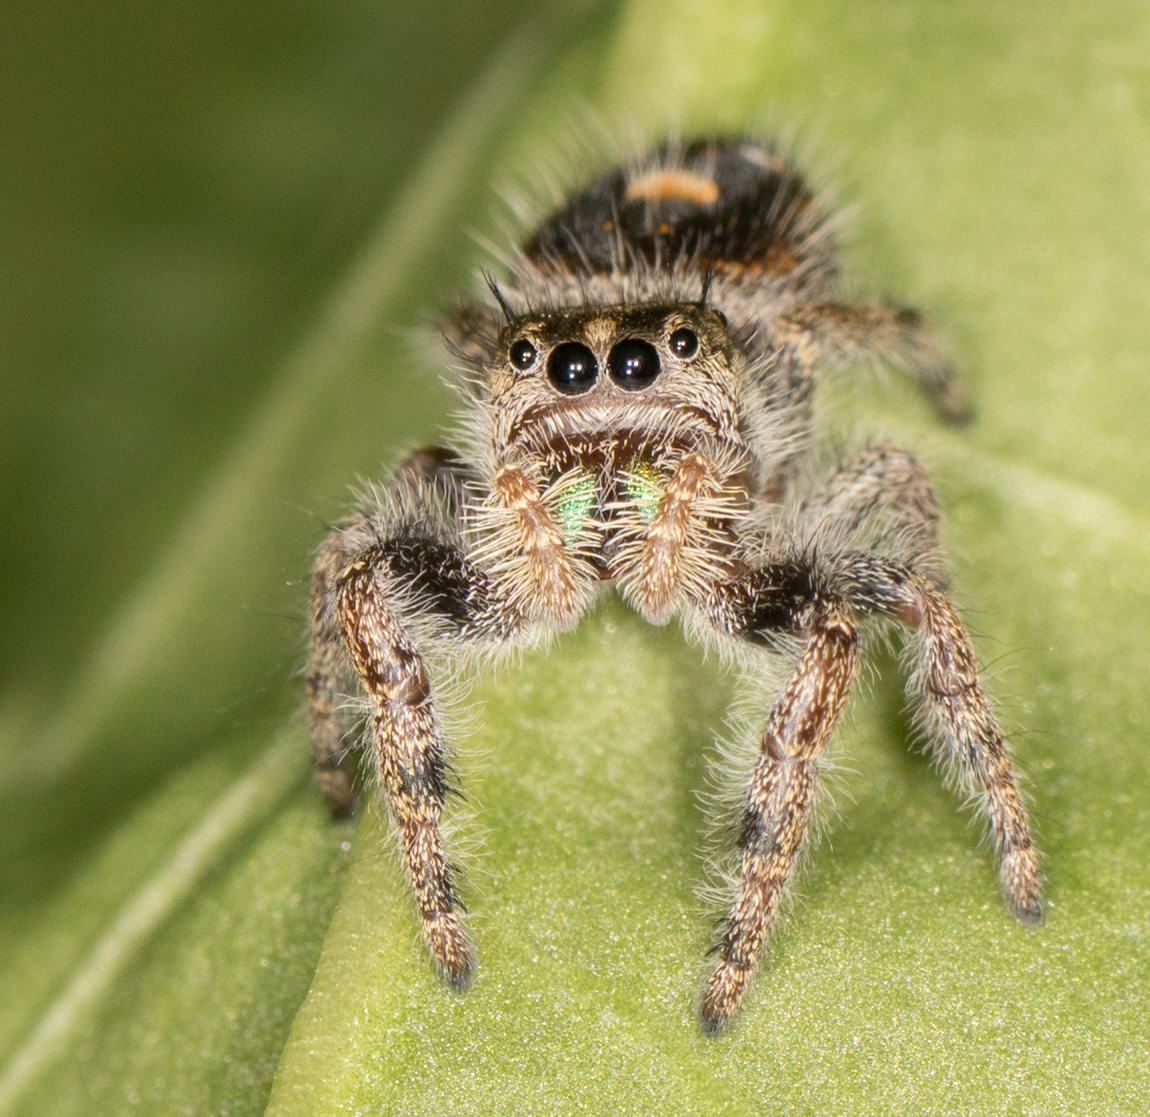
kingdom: Animalia
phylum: Arthropoda
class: Arachnida
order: Araneae
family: Salticidae
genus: Phidippus
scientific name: Phidippus audax
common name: Bold jumper
